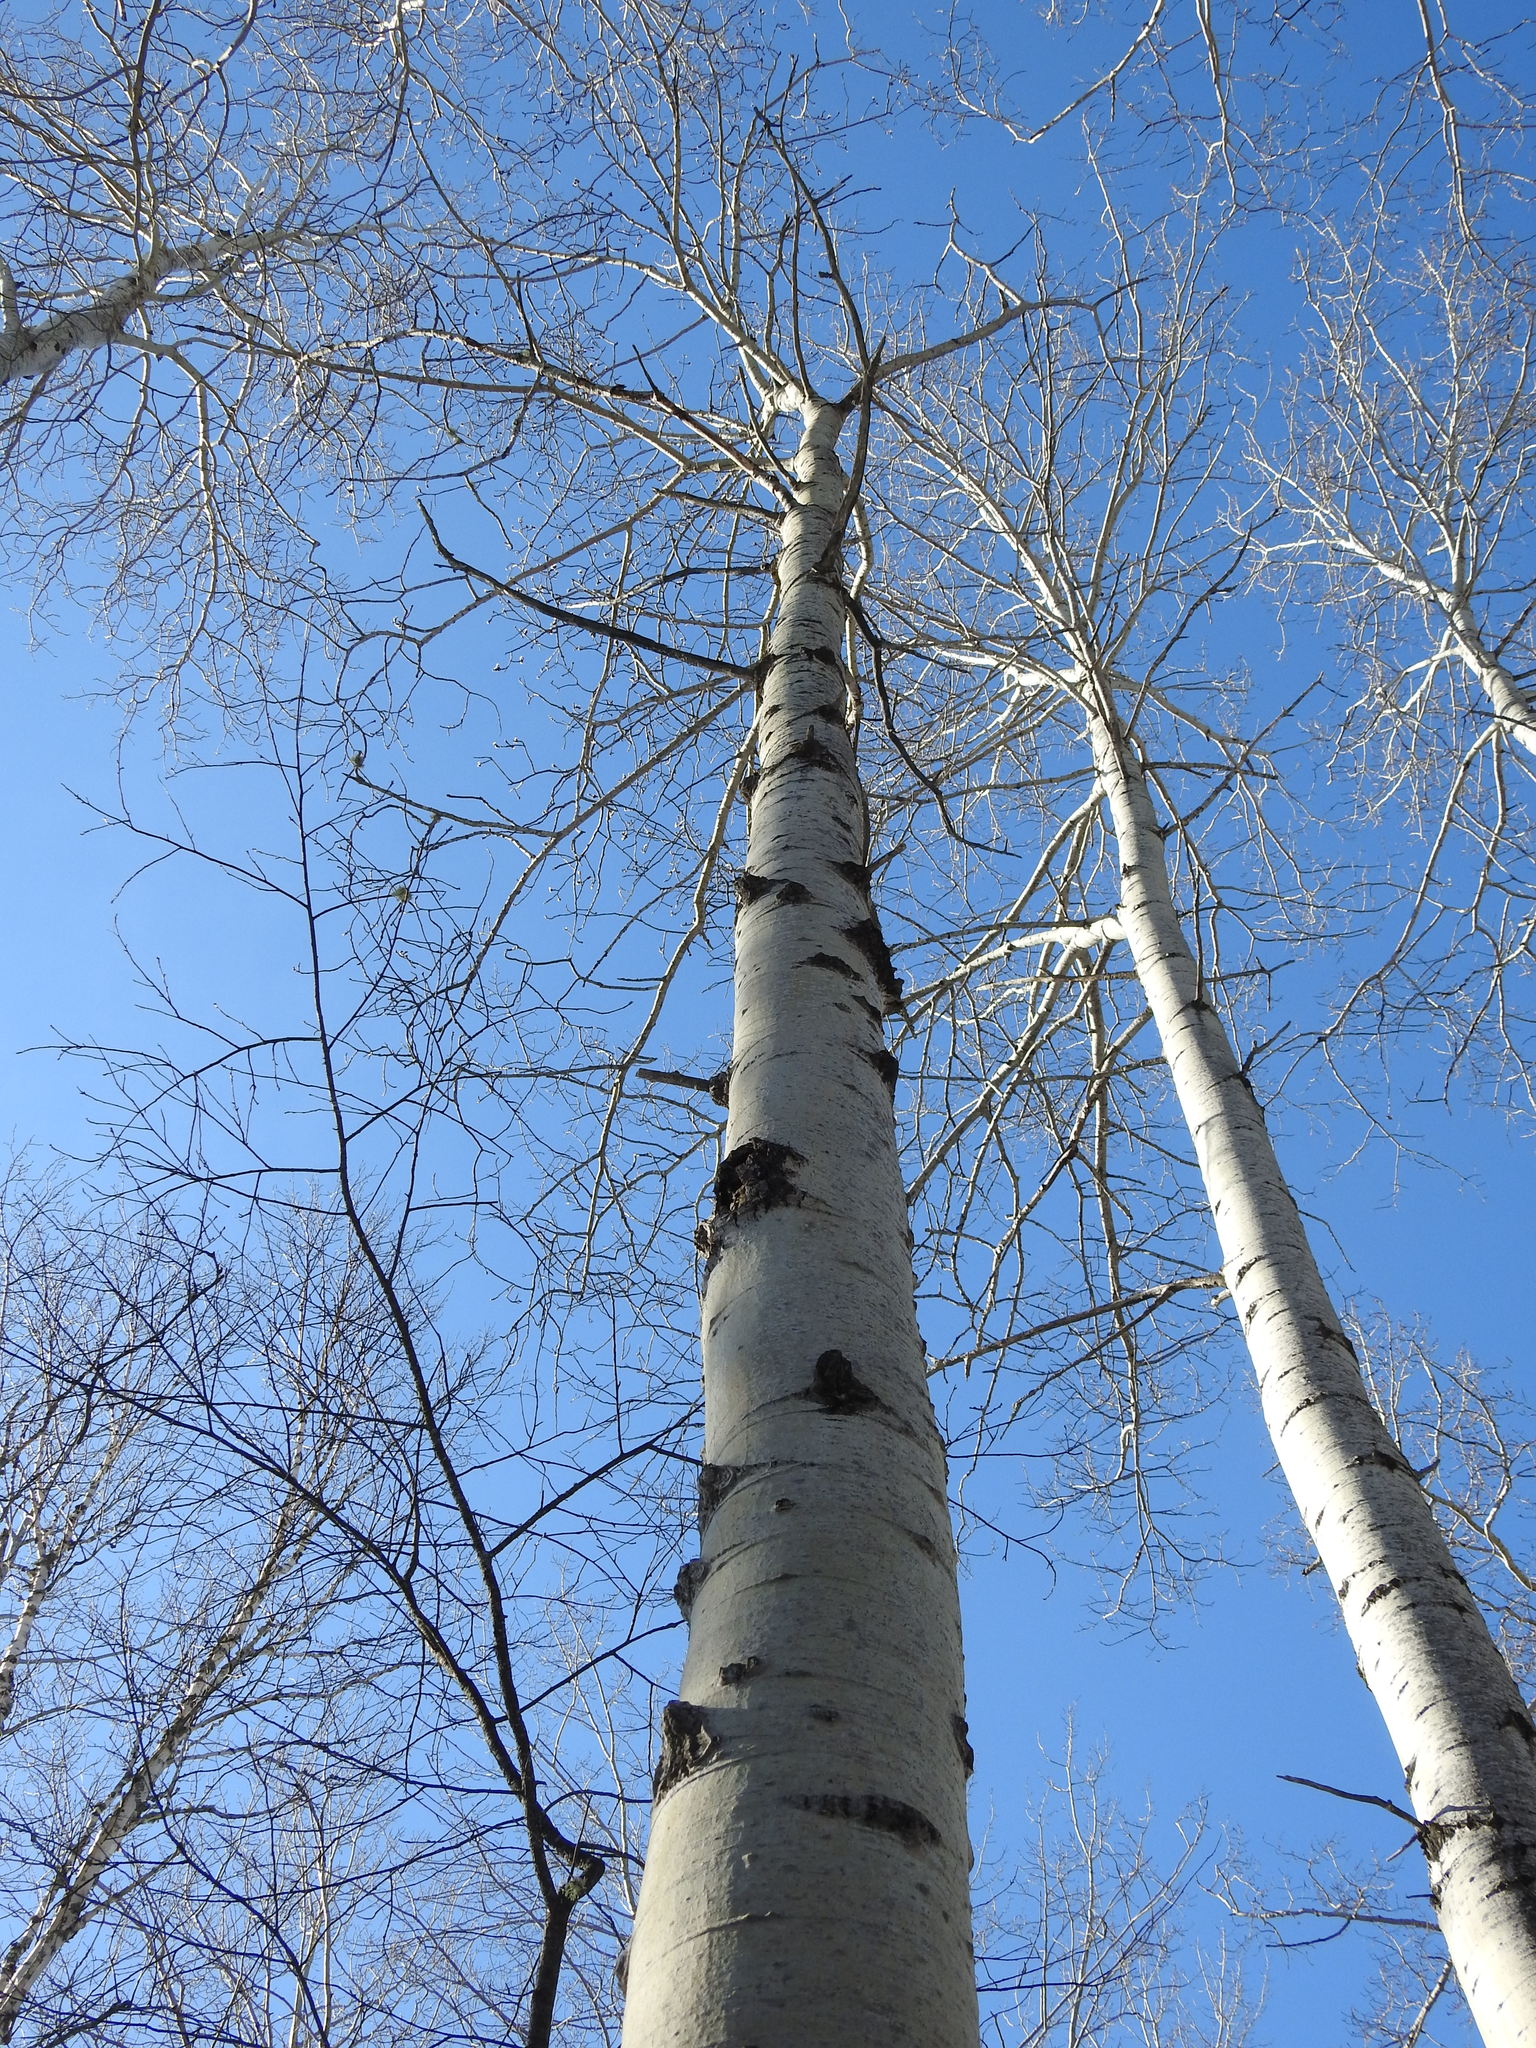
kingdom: Plantae
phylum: Tracheophyta
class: Magnoliopsida
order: Malpighiales
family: Salicaceae
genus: Populus
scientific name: Populus tremuloides
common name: Quaking aspen
